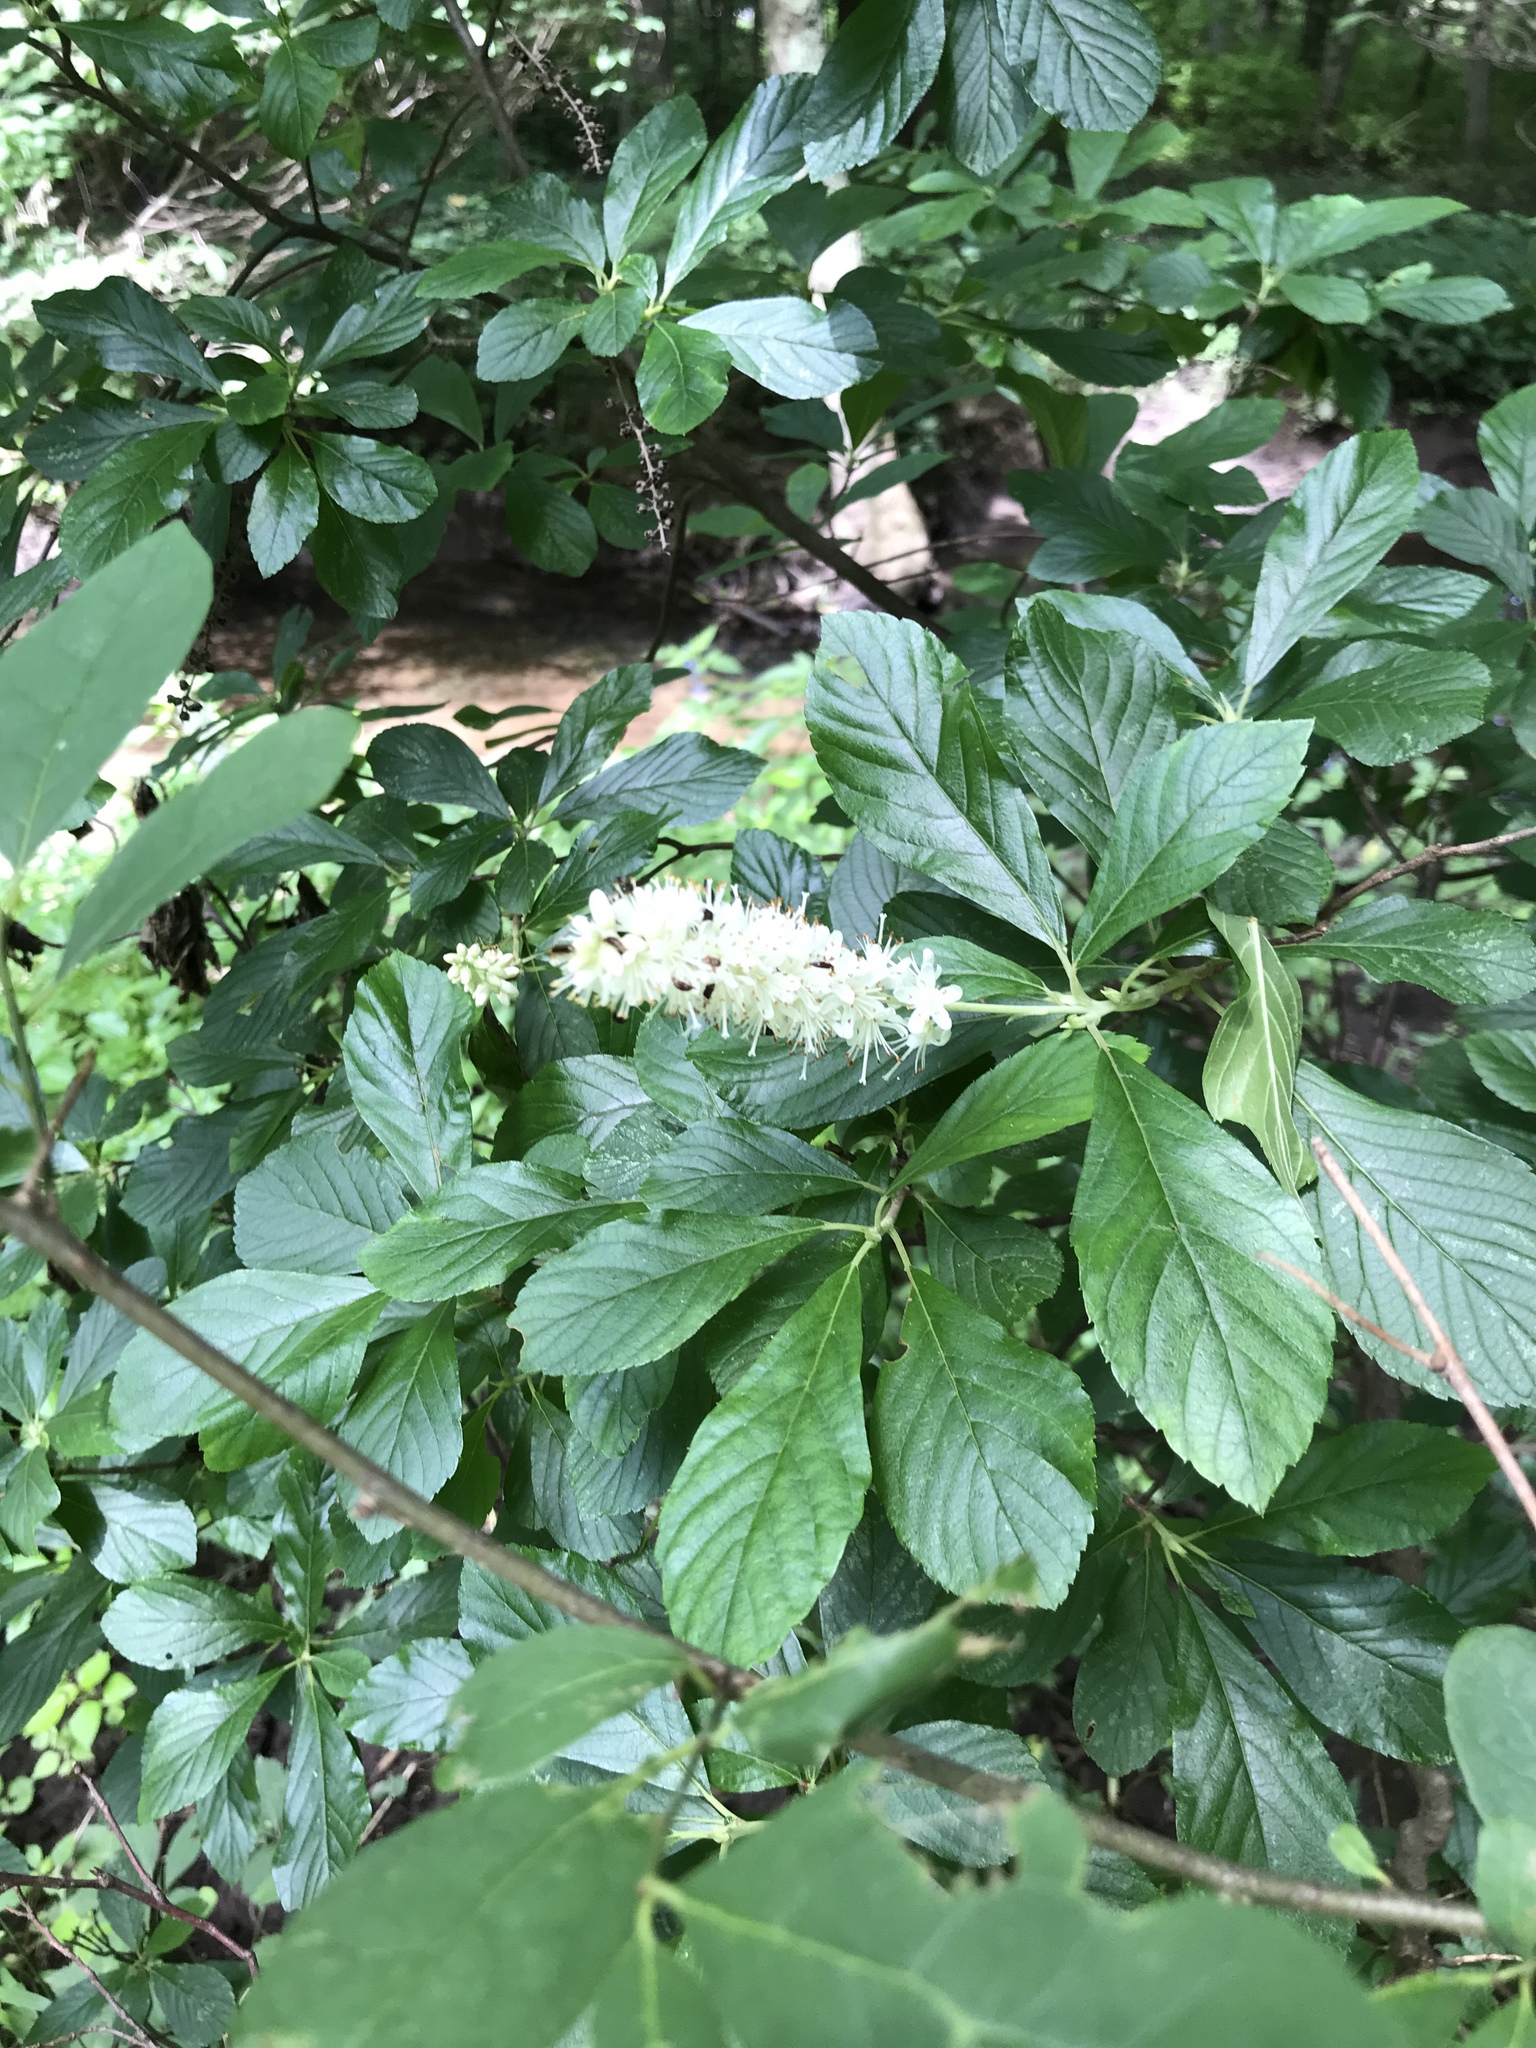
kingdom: Plantae
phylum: Tracheophyta
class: Magnoliopsida
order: Ericales
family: Clethraceae
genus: Clethra
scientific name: Clethra alnifolia
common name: Sweet pepperbush
